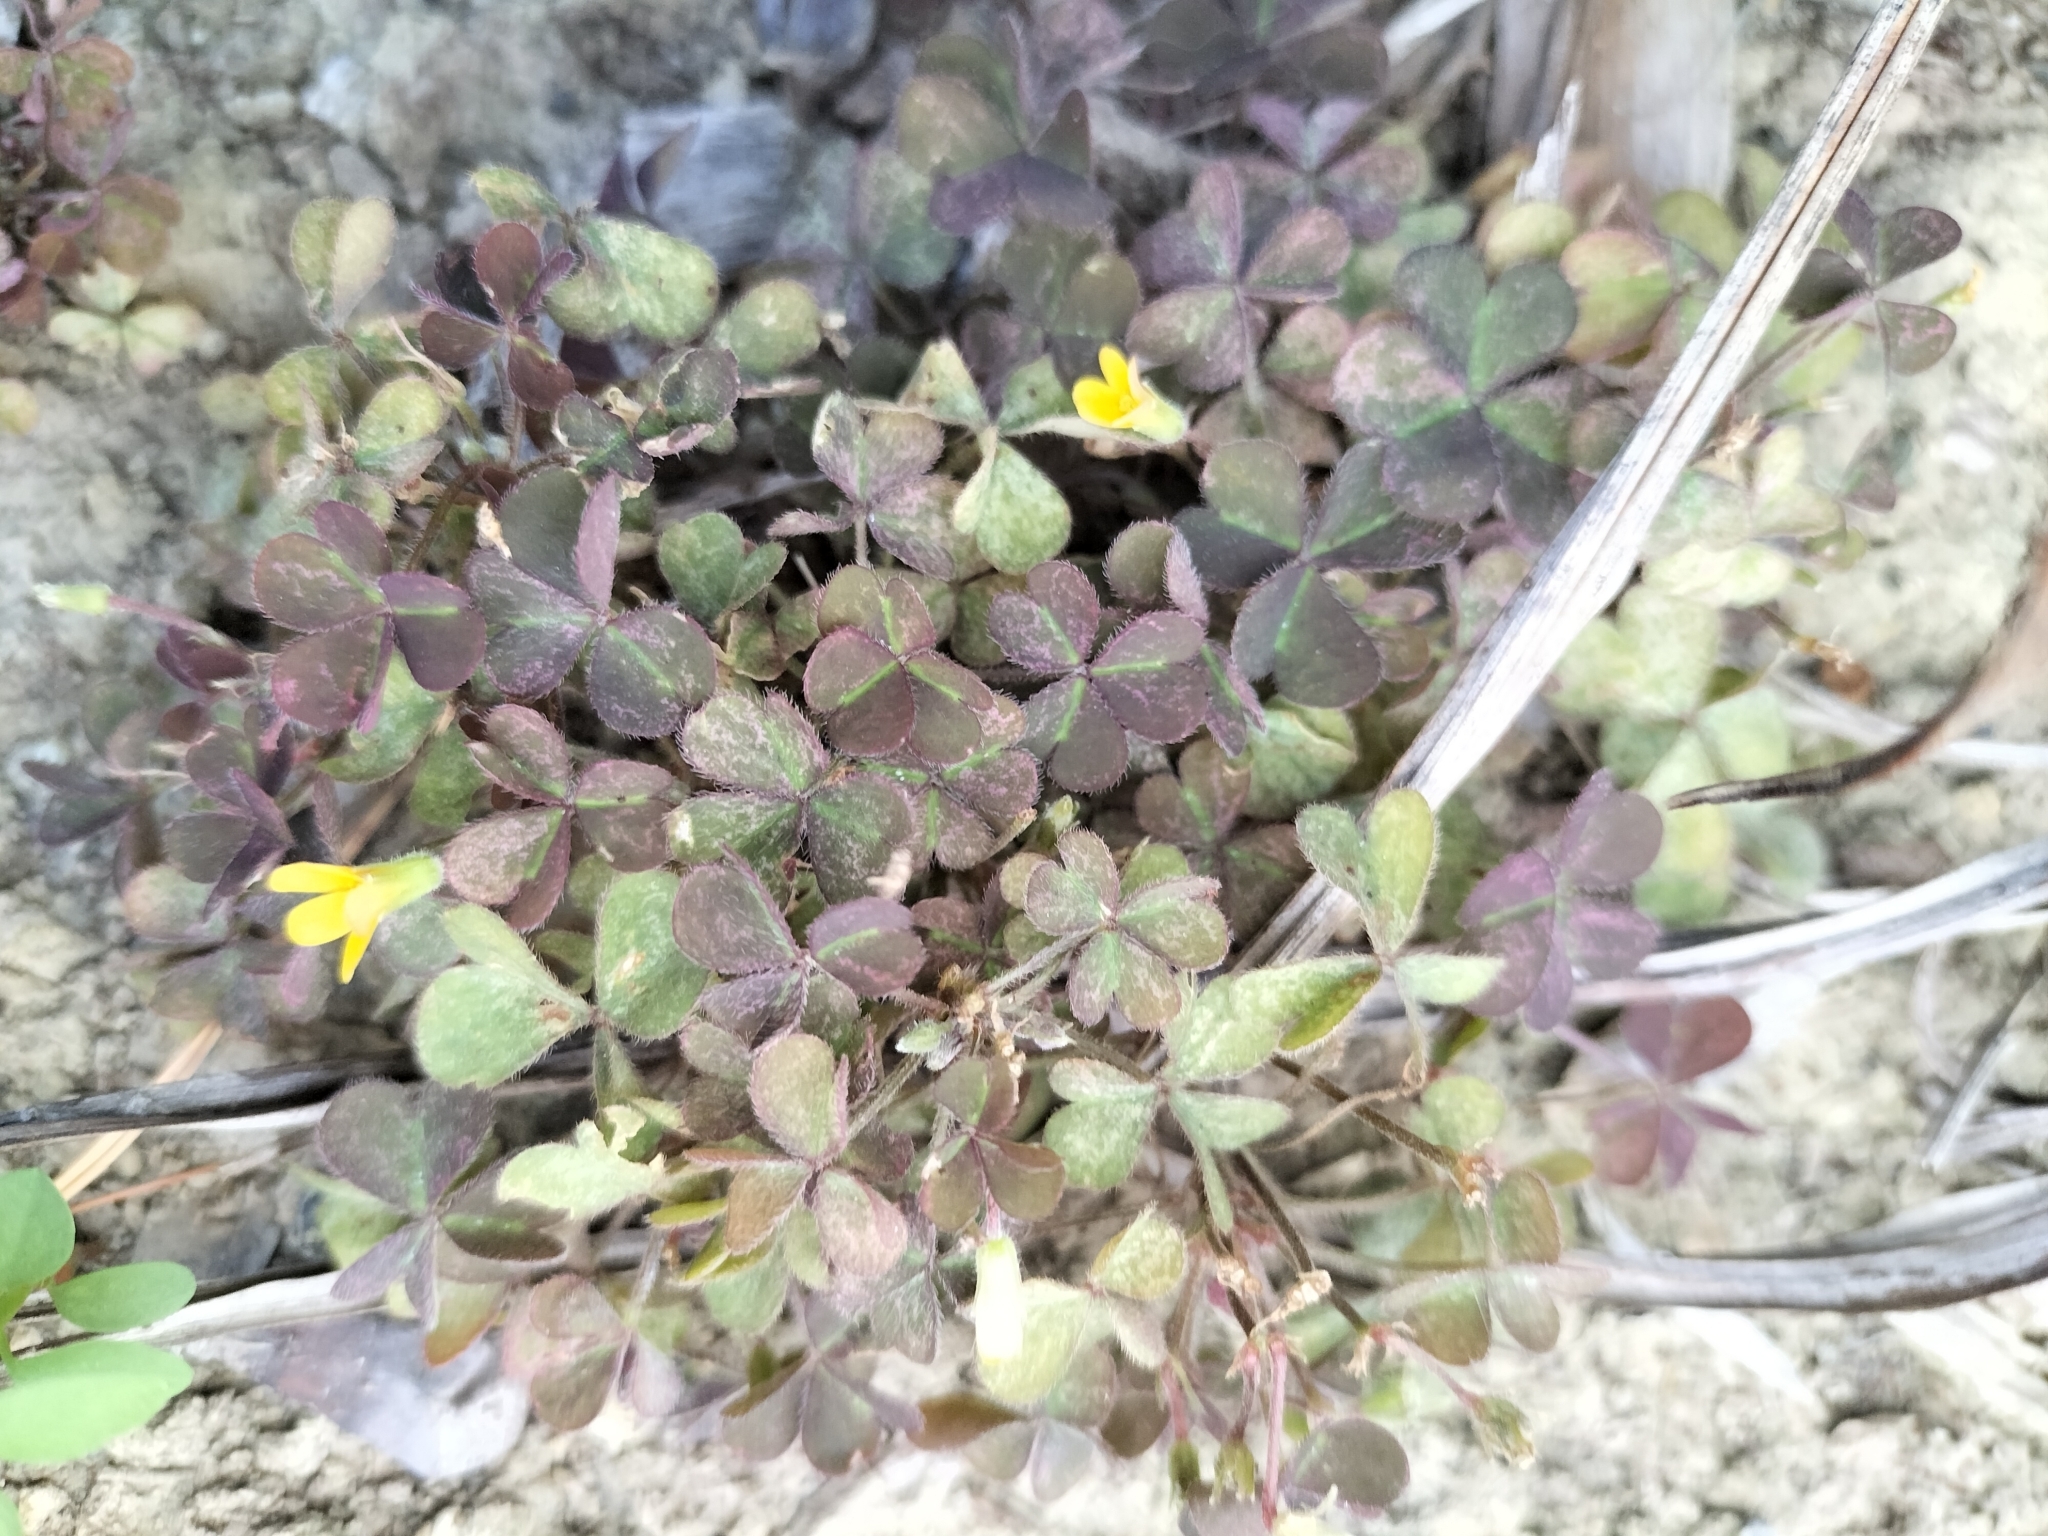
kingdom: Plantae
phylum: Tracheophyta
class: Magnoliopsida
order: Oxalidales
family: Oxalidaceae
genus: Oxalis
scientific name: Oxalis corniculata
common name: Procumbent yellow-sorrel
